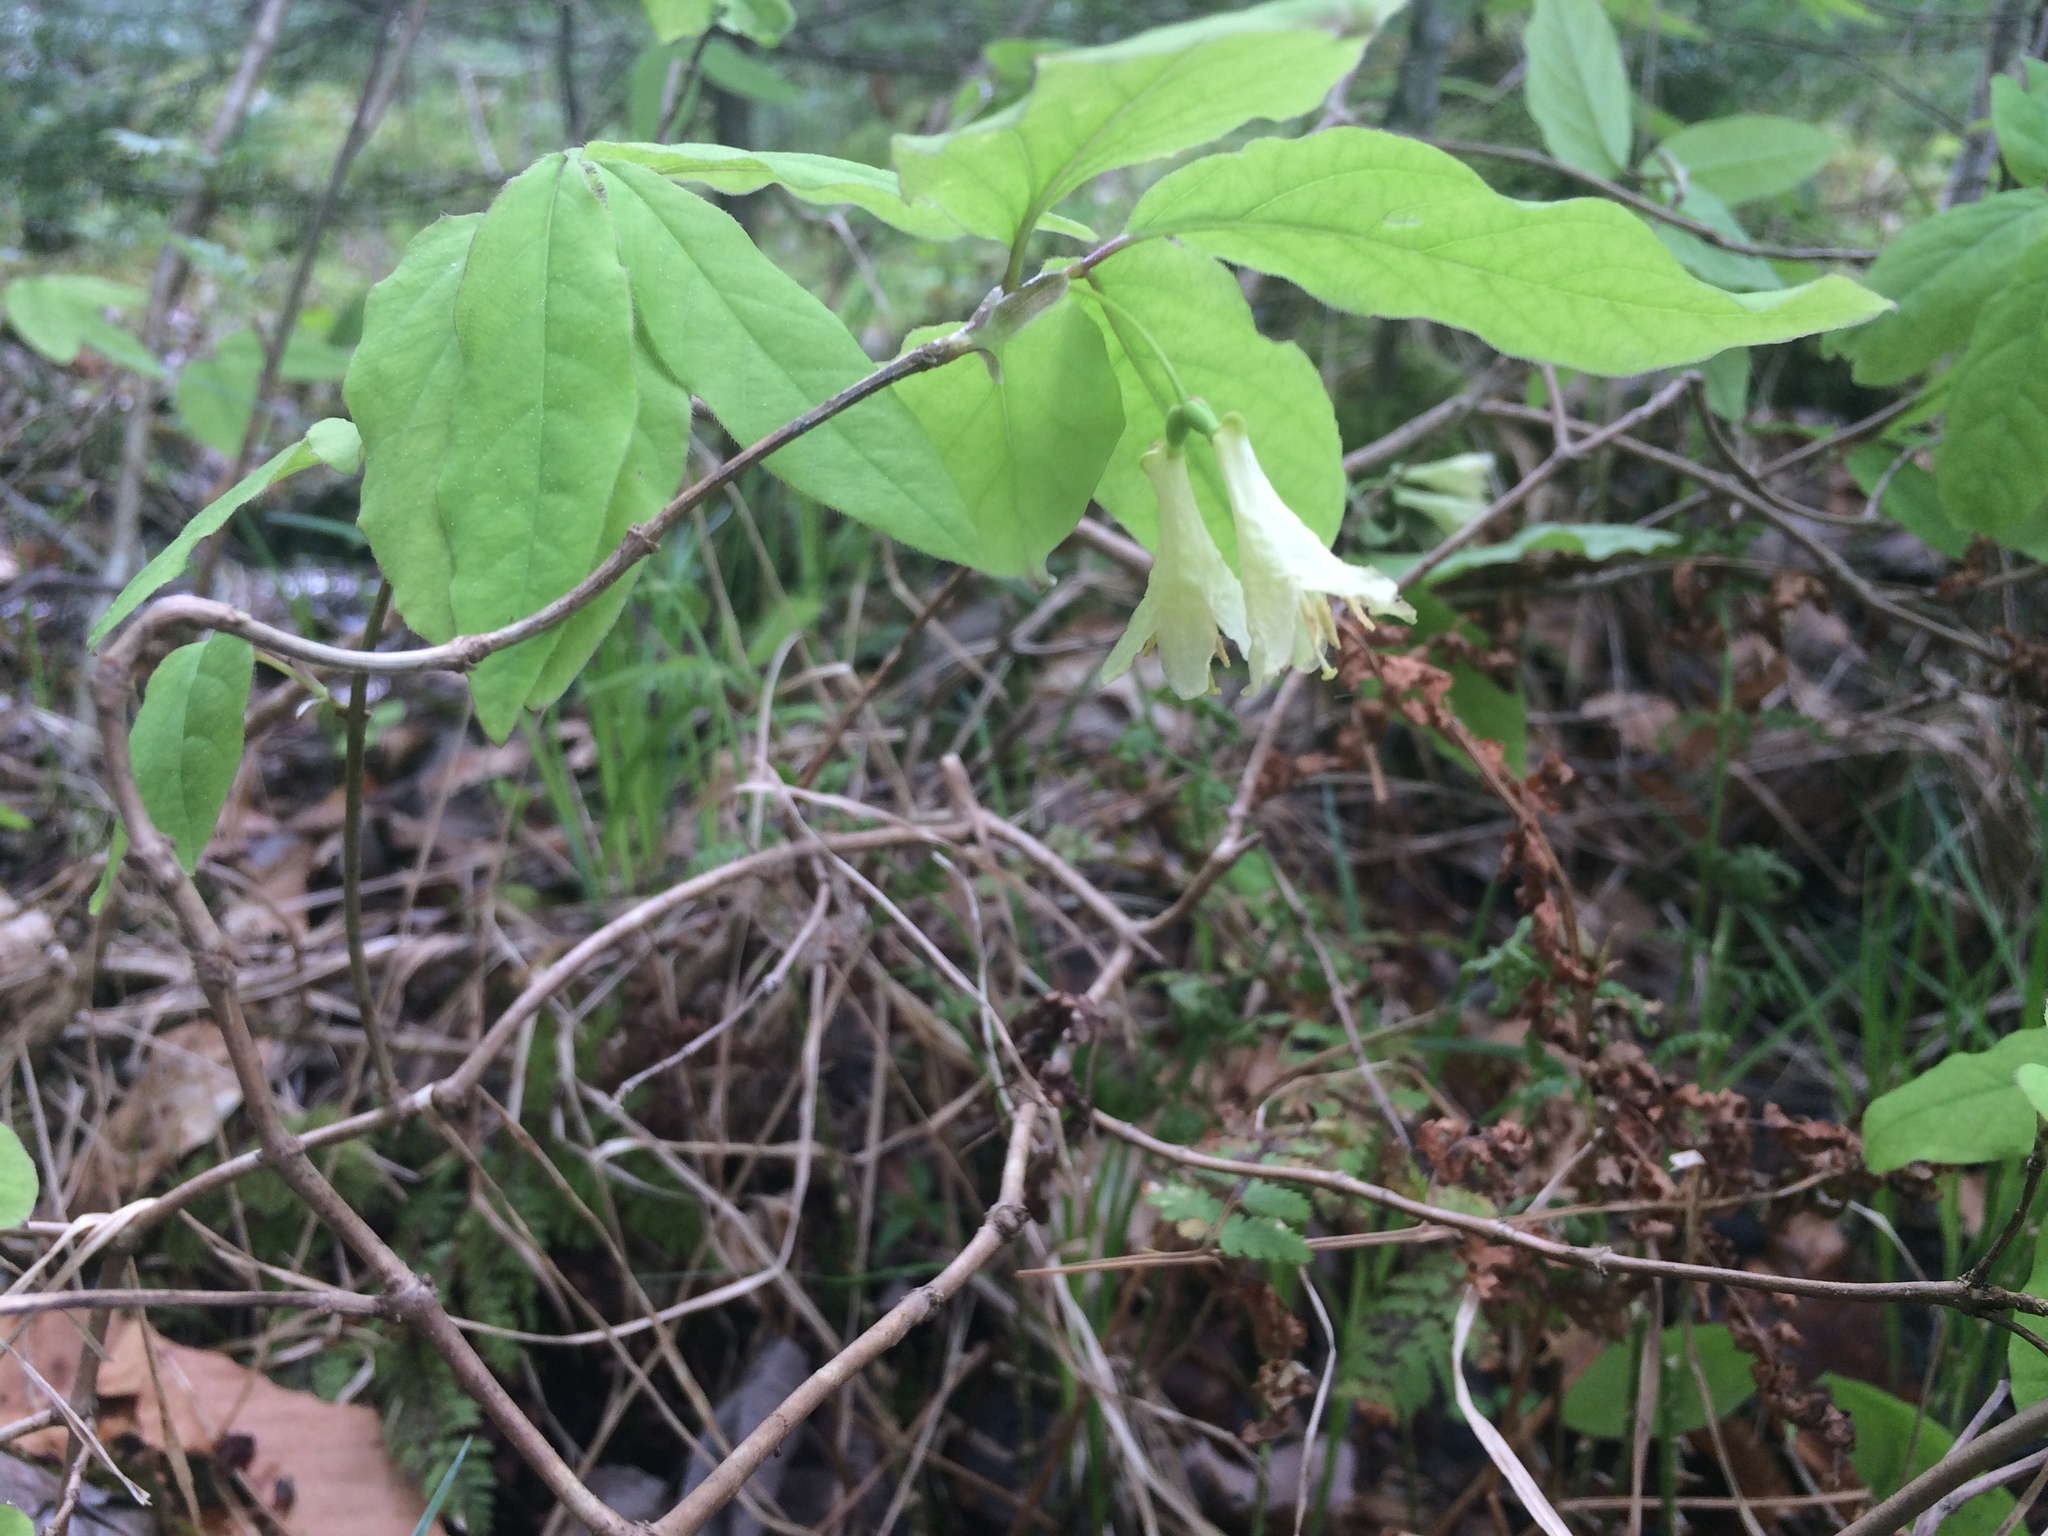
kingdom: Plantae
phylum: Tracheophyta
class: Magnoliopsida
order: Dipsacales
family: Caprifoliaceae
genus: Lonicera
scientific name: Lonicera canadensis
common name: American fly-honeysuckle
